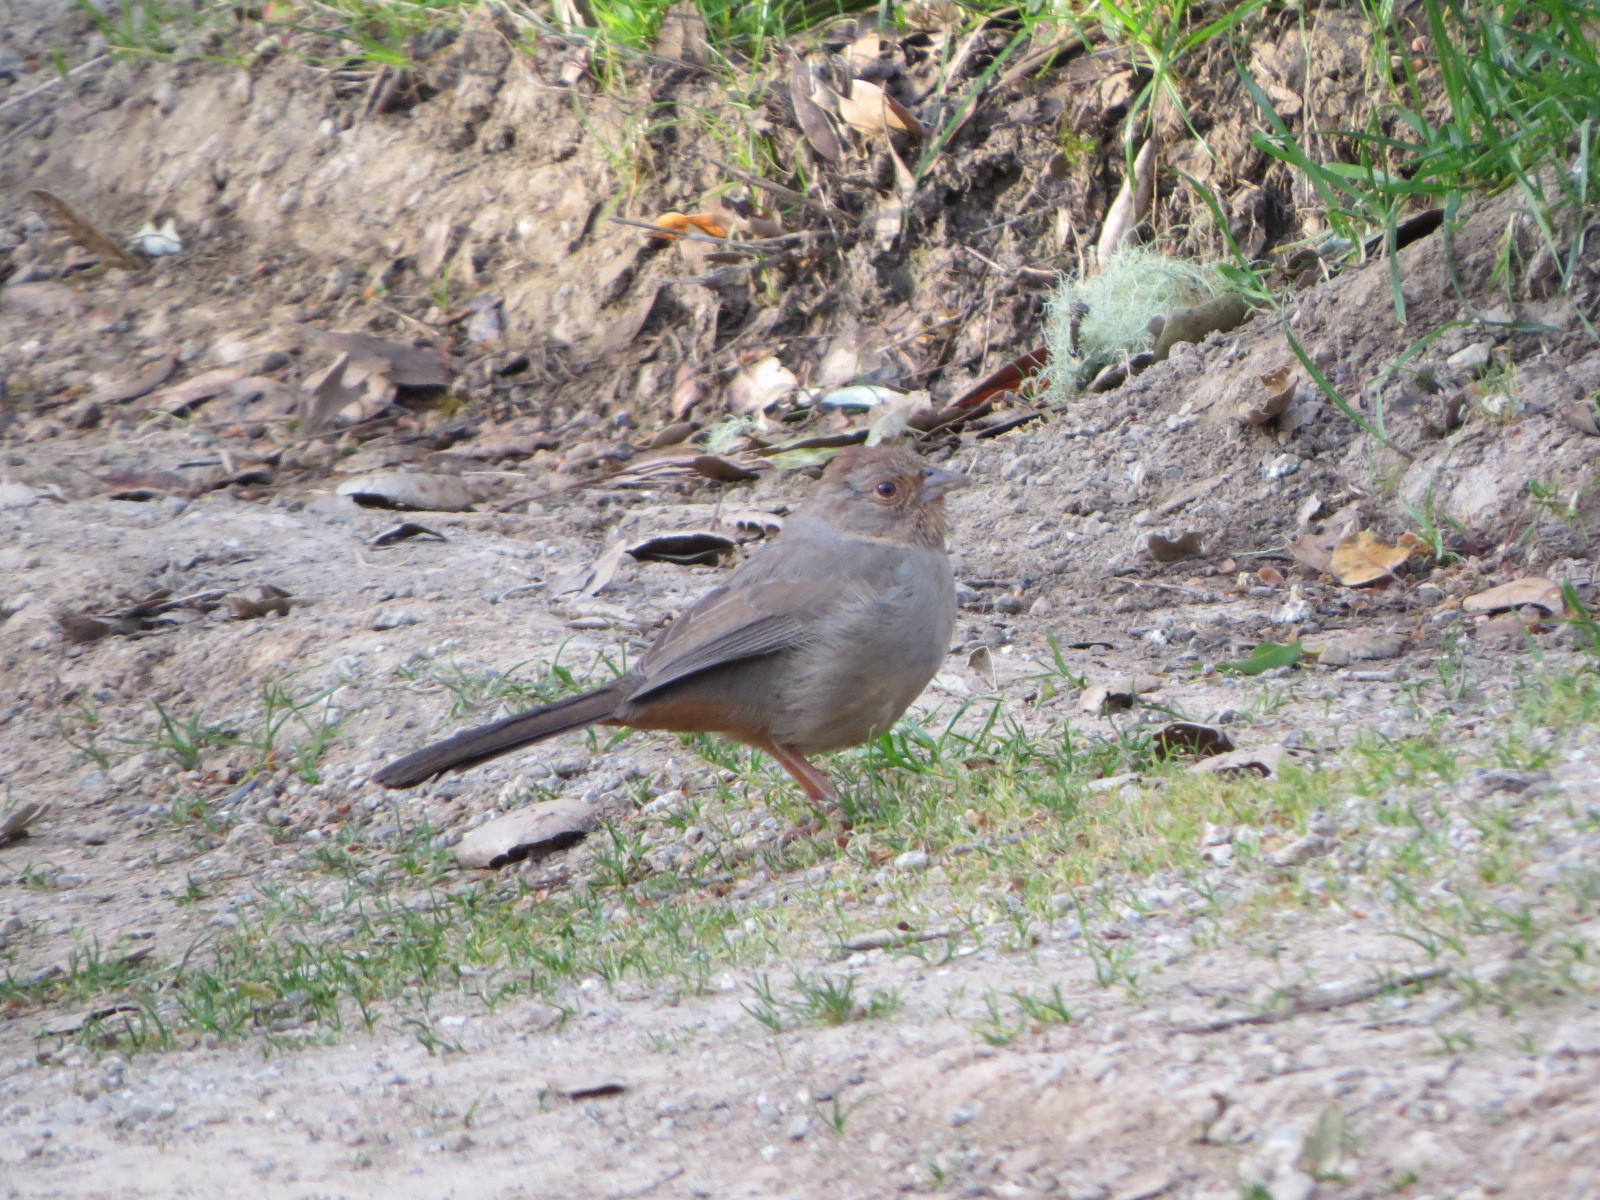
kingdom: Animalia
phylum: Chordata
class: Aves
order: Passeriformes
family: Passerellidae
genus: Melozone
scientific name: Melozone crissalis
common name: California towhee
